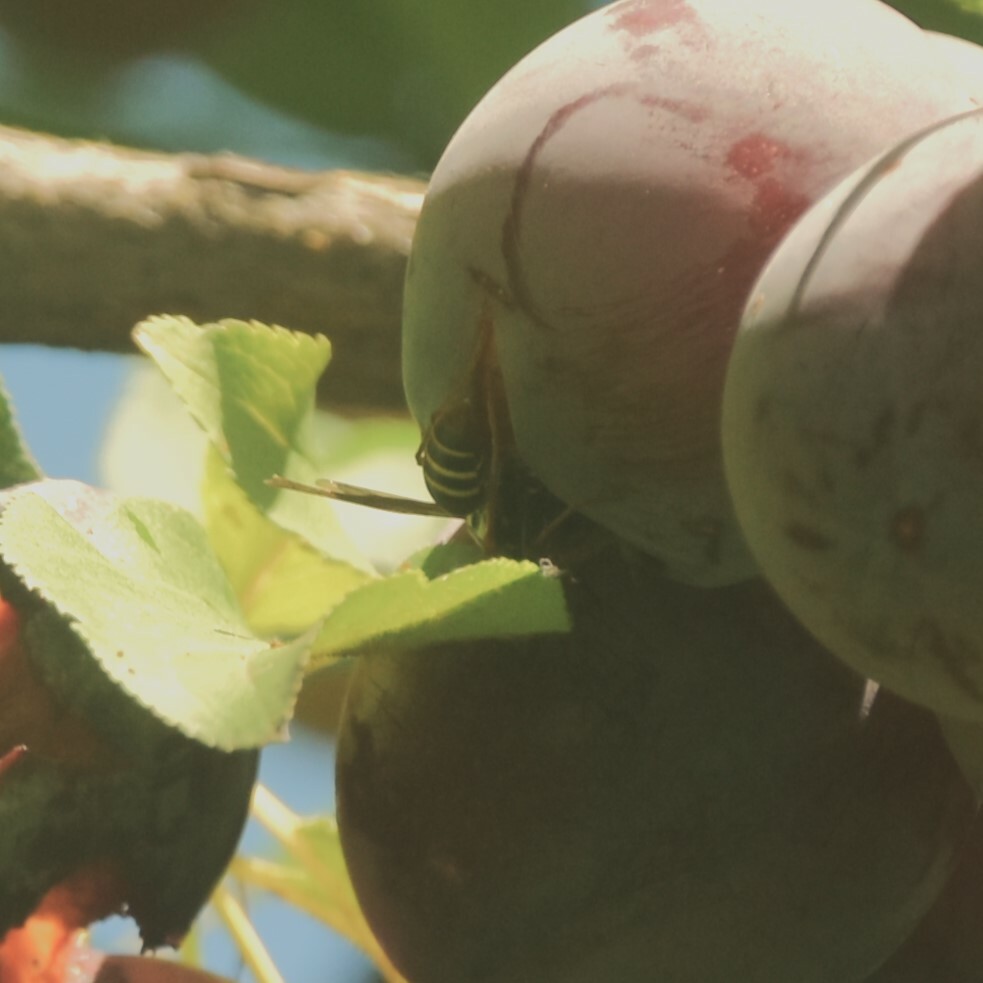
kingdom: Animalia
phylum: Arthropoda
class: Insecta
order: Hymenoptera
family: Eumenidae
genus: Knemodynerus
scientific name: Knemodynerus multimaculatus
